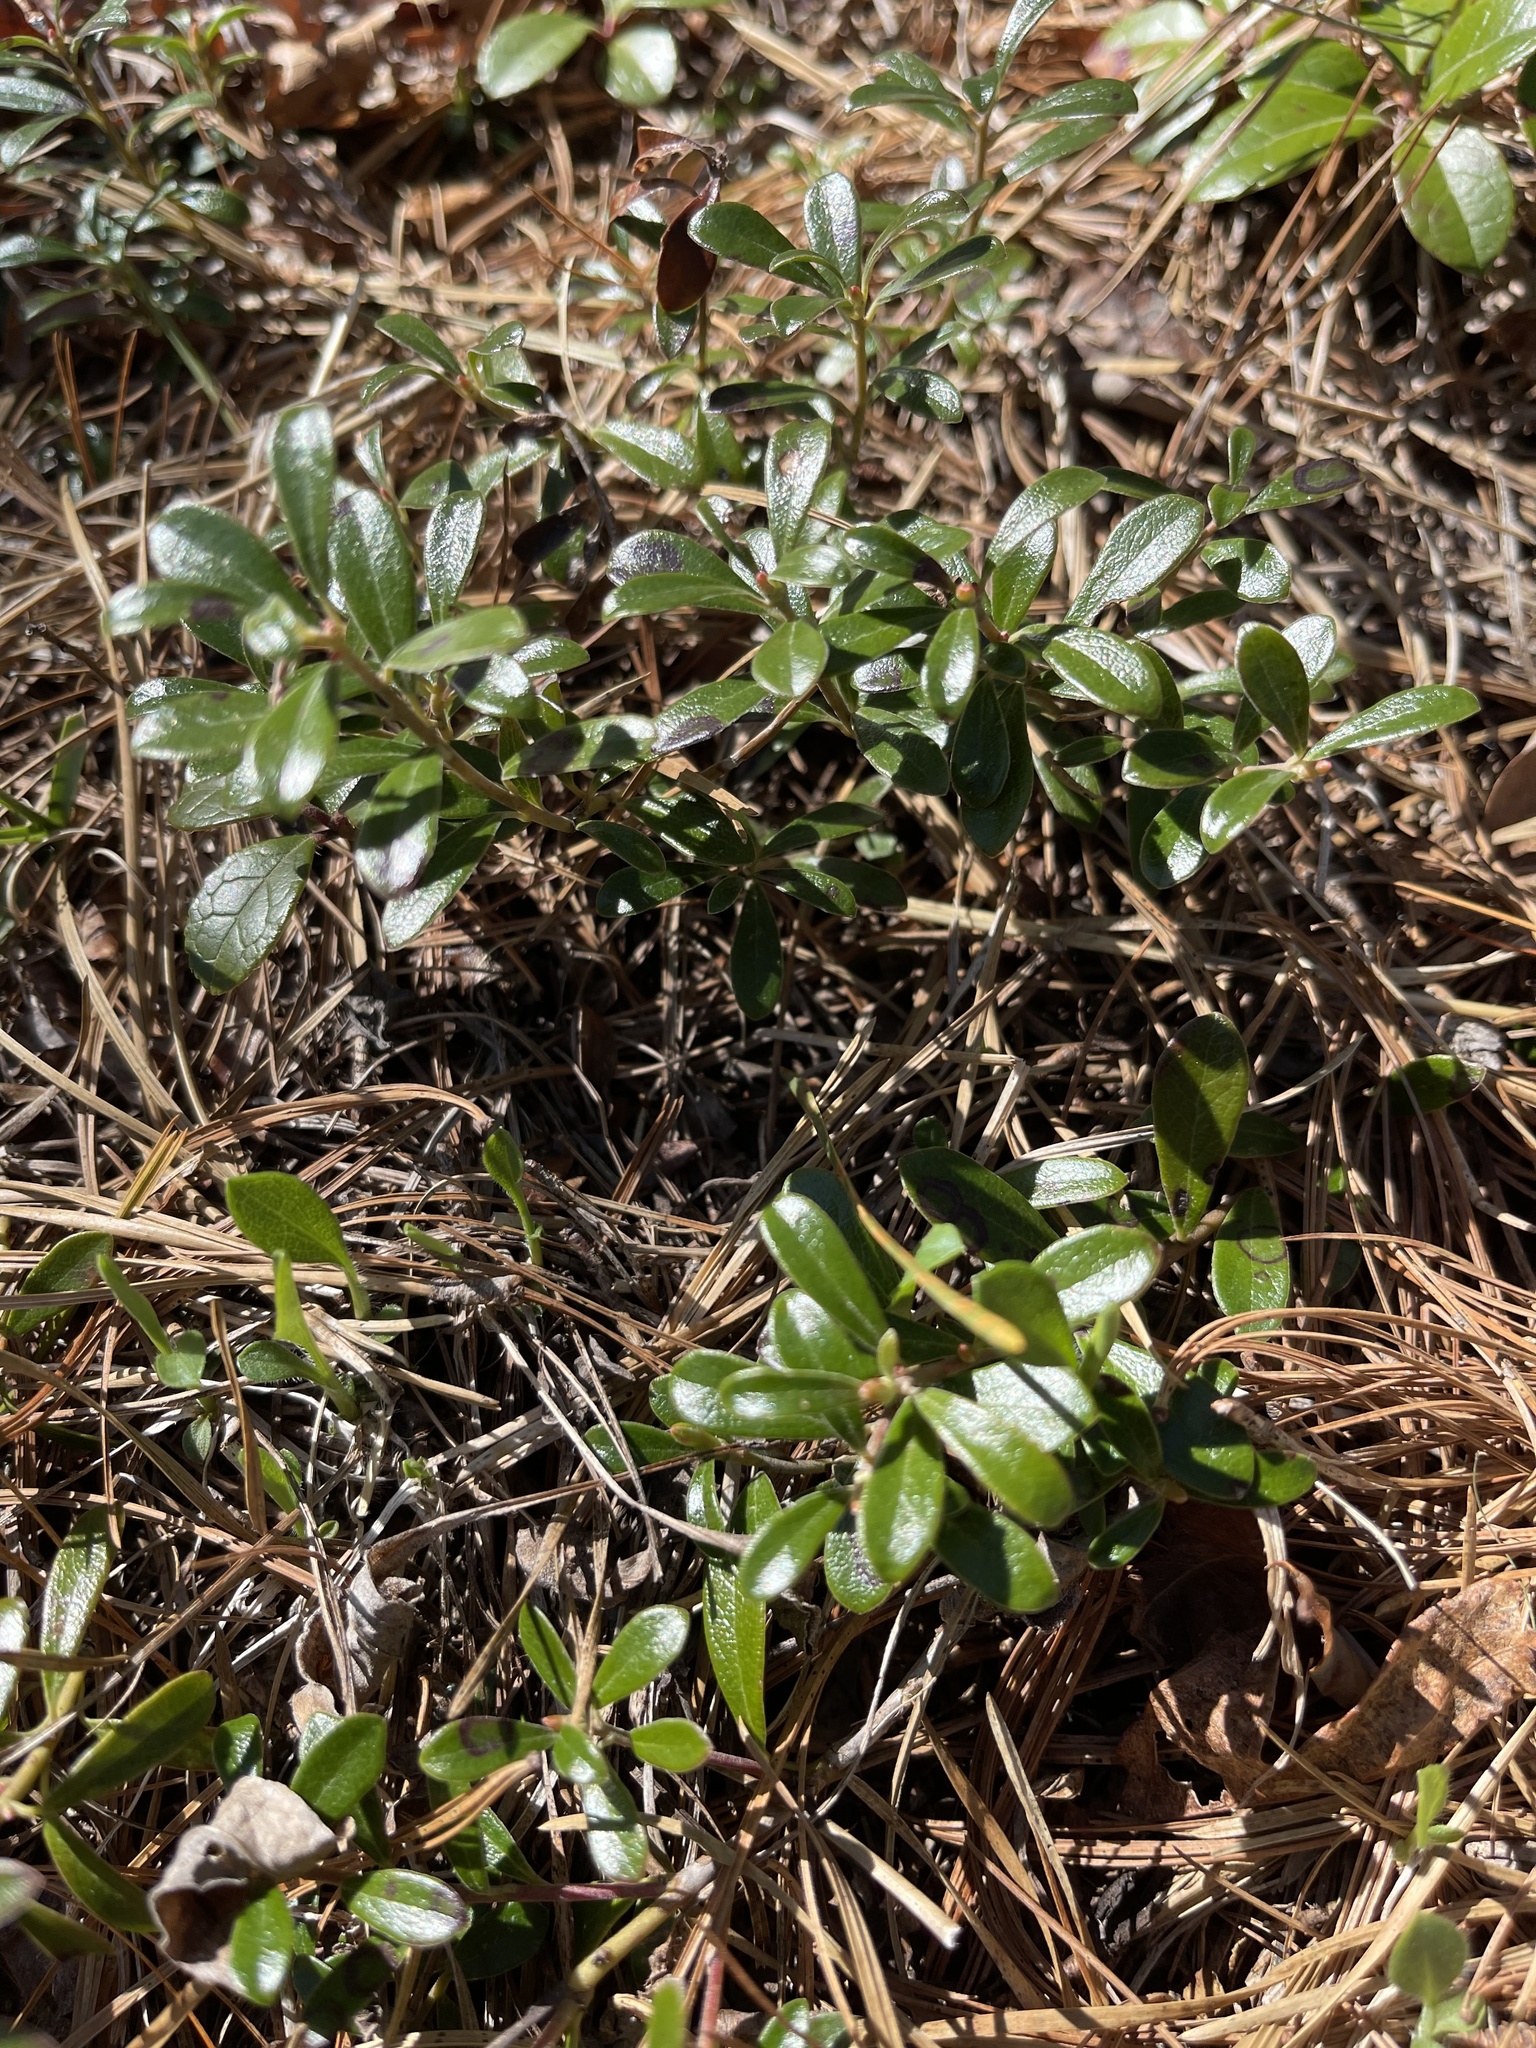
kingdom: Plantae
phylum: Tracheophyta
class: Magnoliopsida
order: Ericales
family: Ericaceae
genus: Arctostaphylos
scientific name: Arctostaphylos uva-ursi
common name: Bearberry
